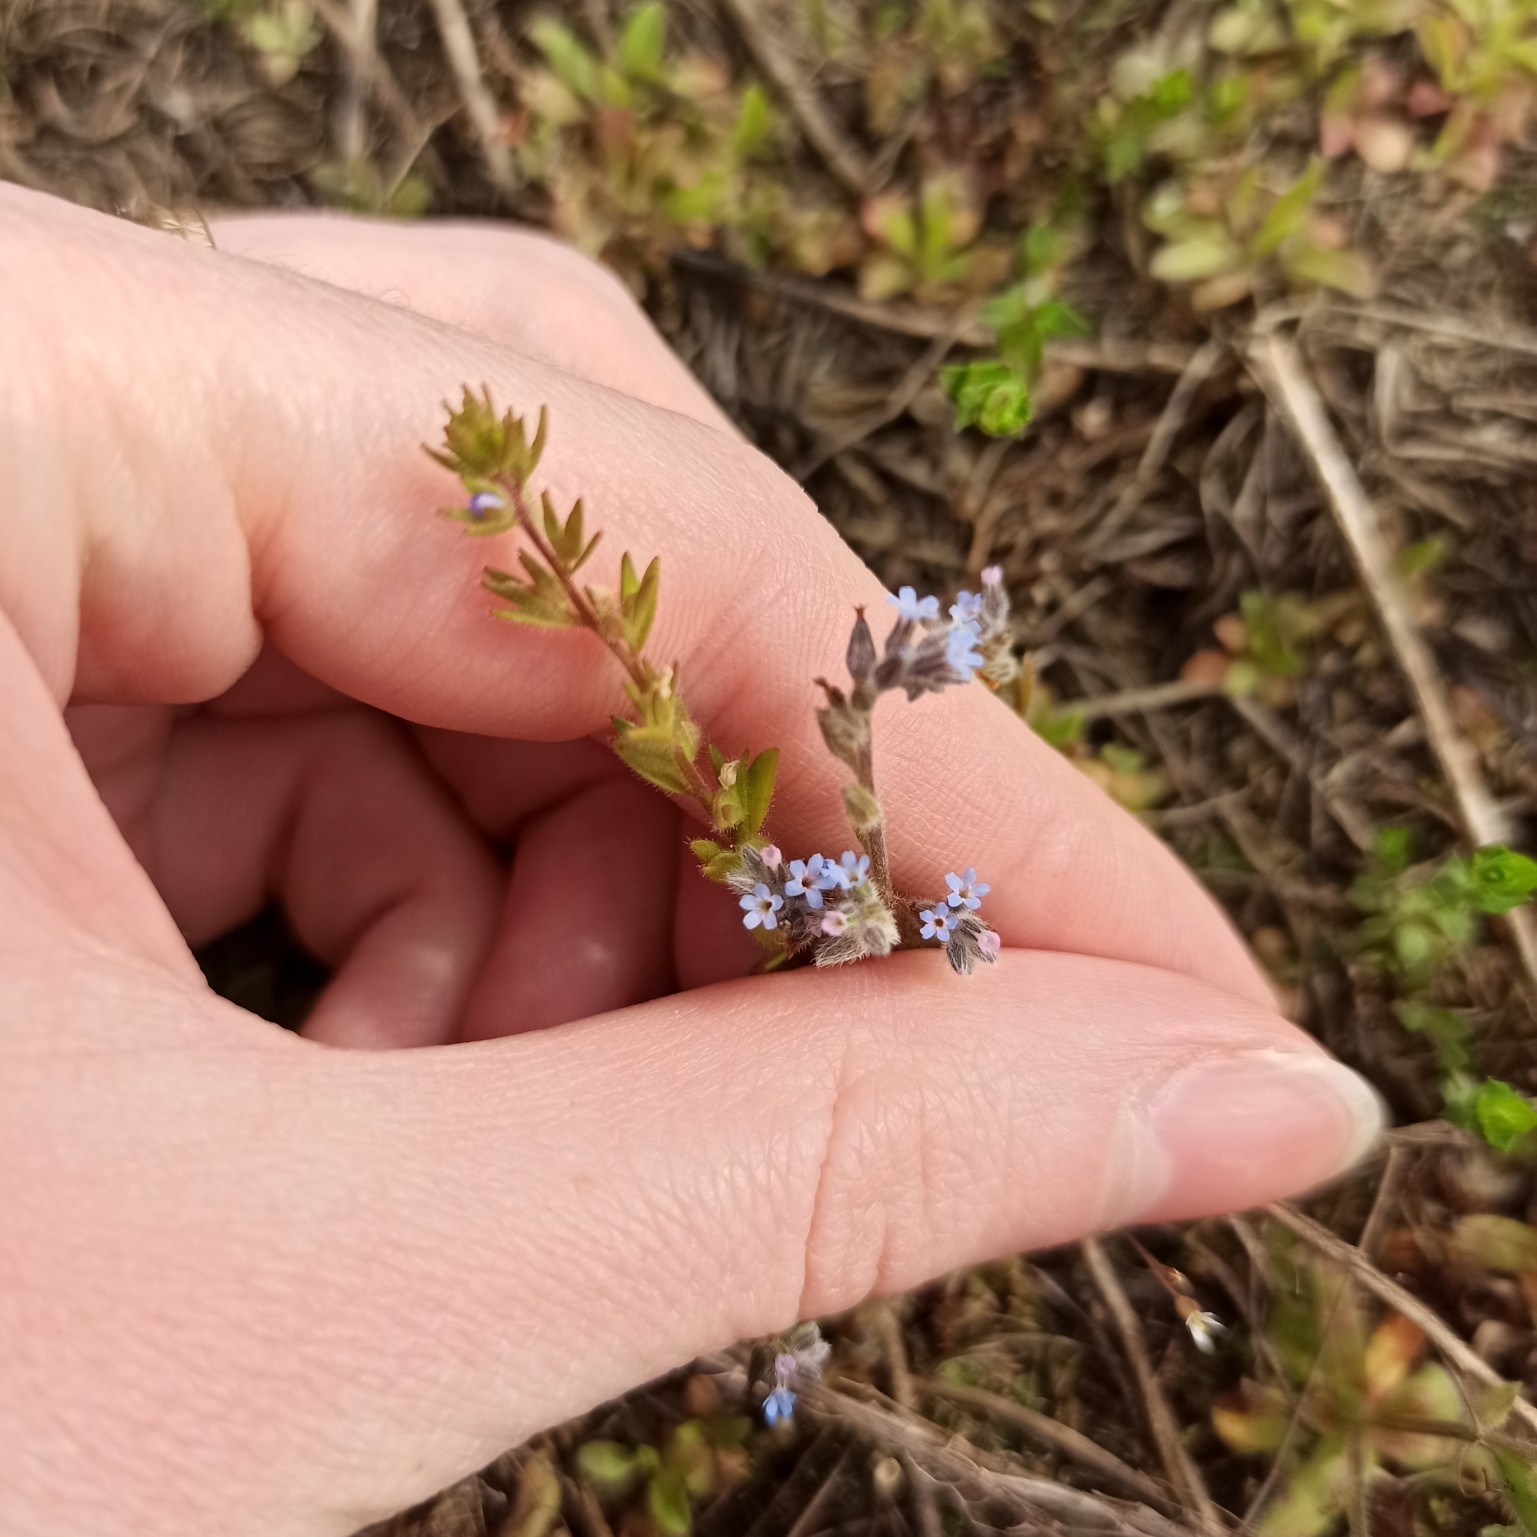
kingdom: Plantae
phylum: Tracheophyta
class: Magnoliopsida
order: Boraginales
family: Boraginaceae
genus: Myosotis
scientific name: Myosotis stricta
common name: Strict forget-me-not
